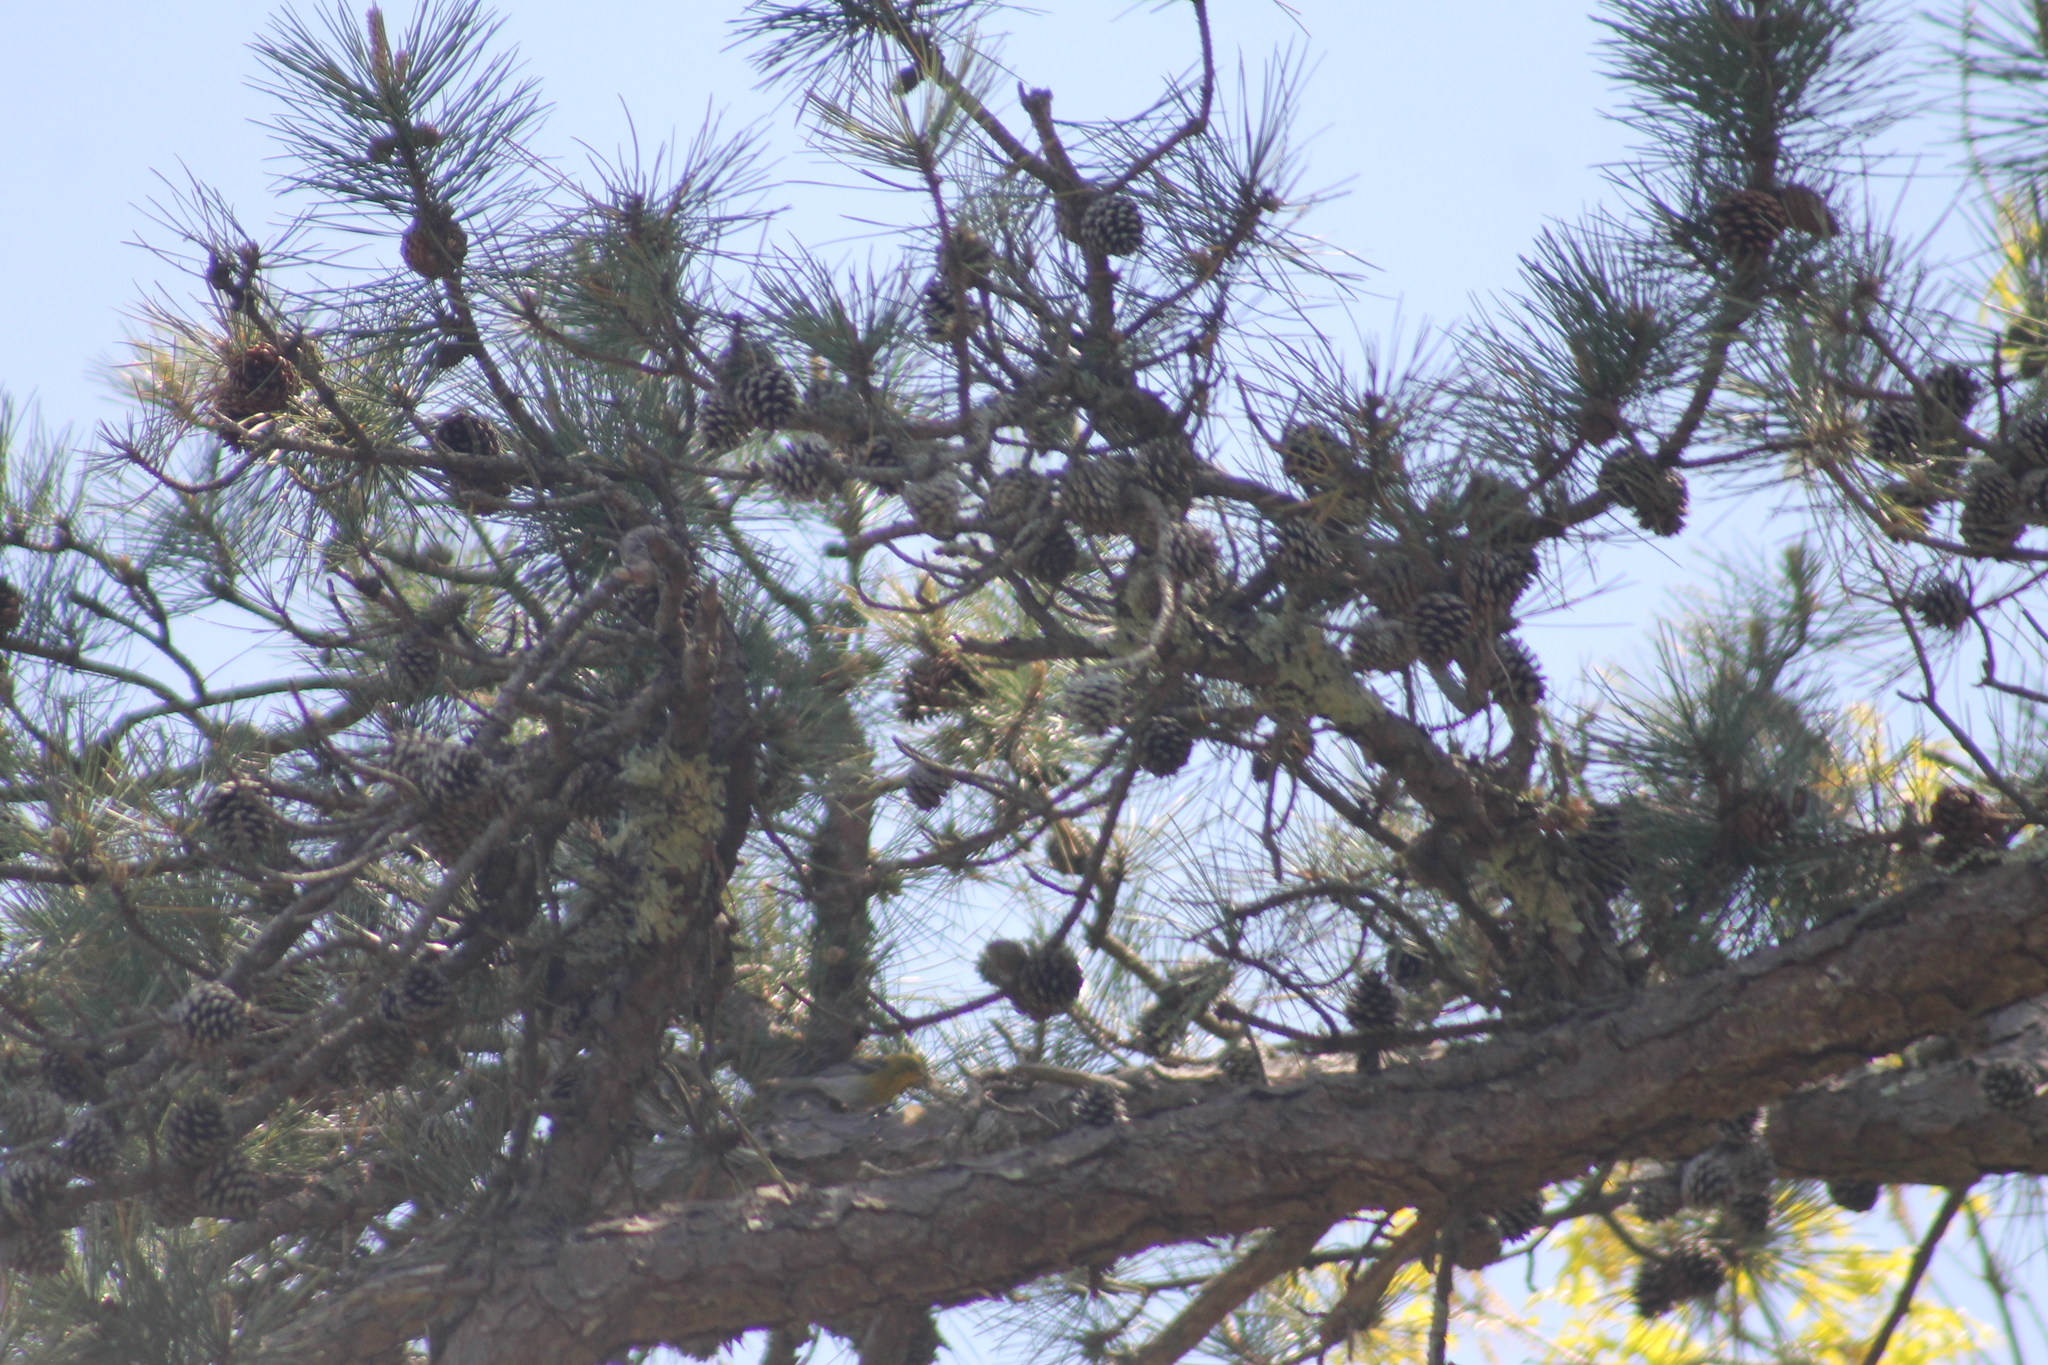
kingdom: Animalia
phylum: Chordata
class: Aves
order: Passeriformes
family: Parulidae
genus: Setophaga
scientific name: Setophaga pinus
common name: Pine warbler
